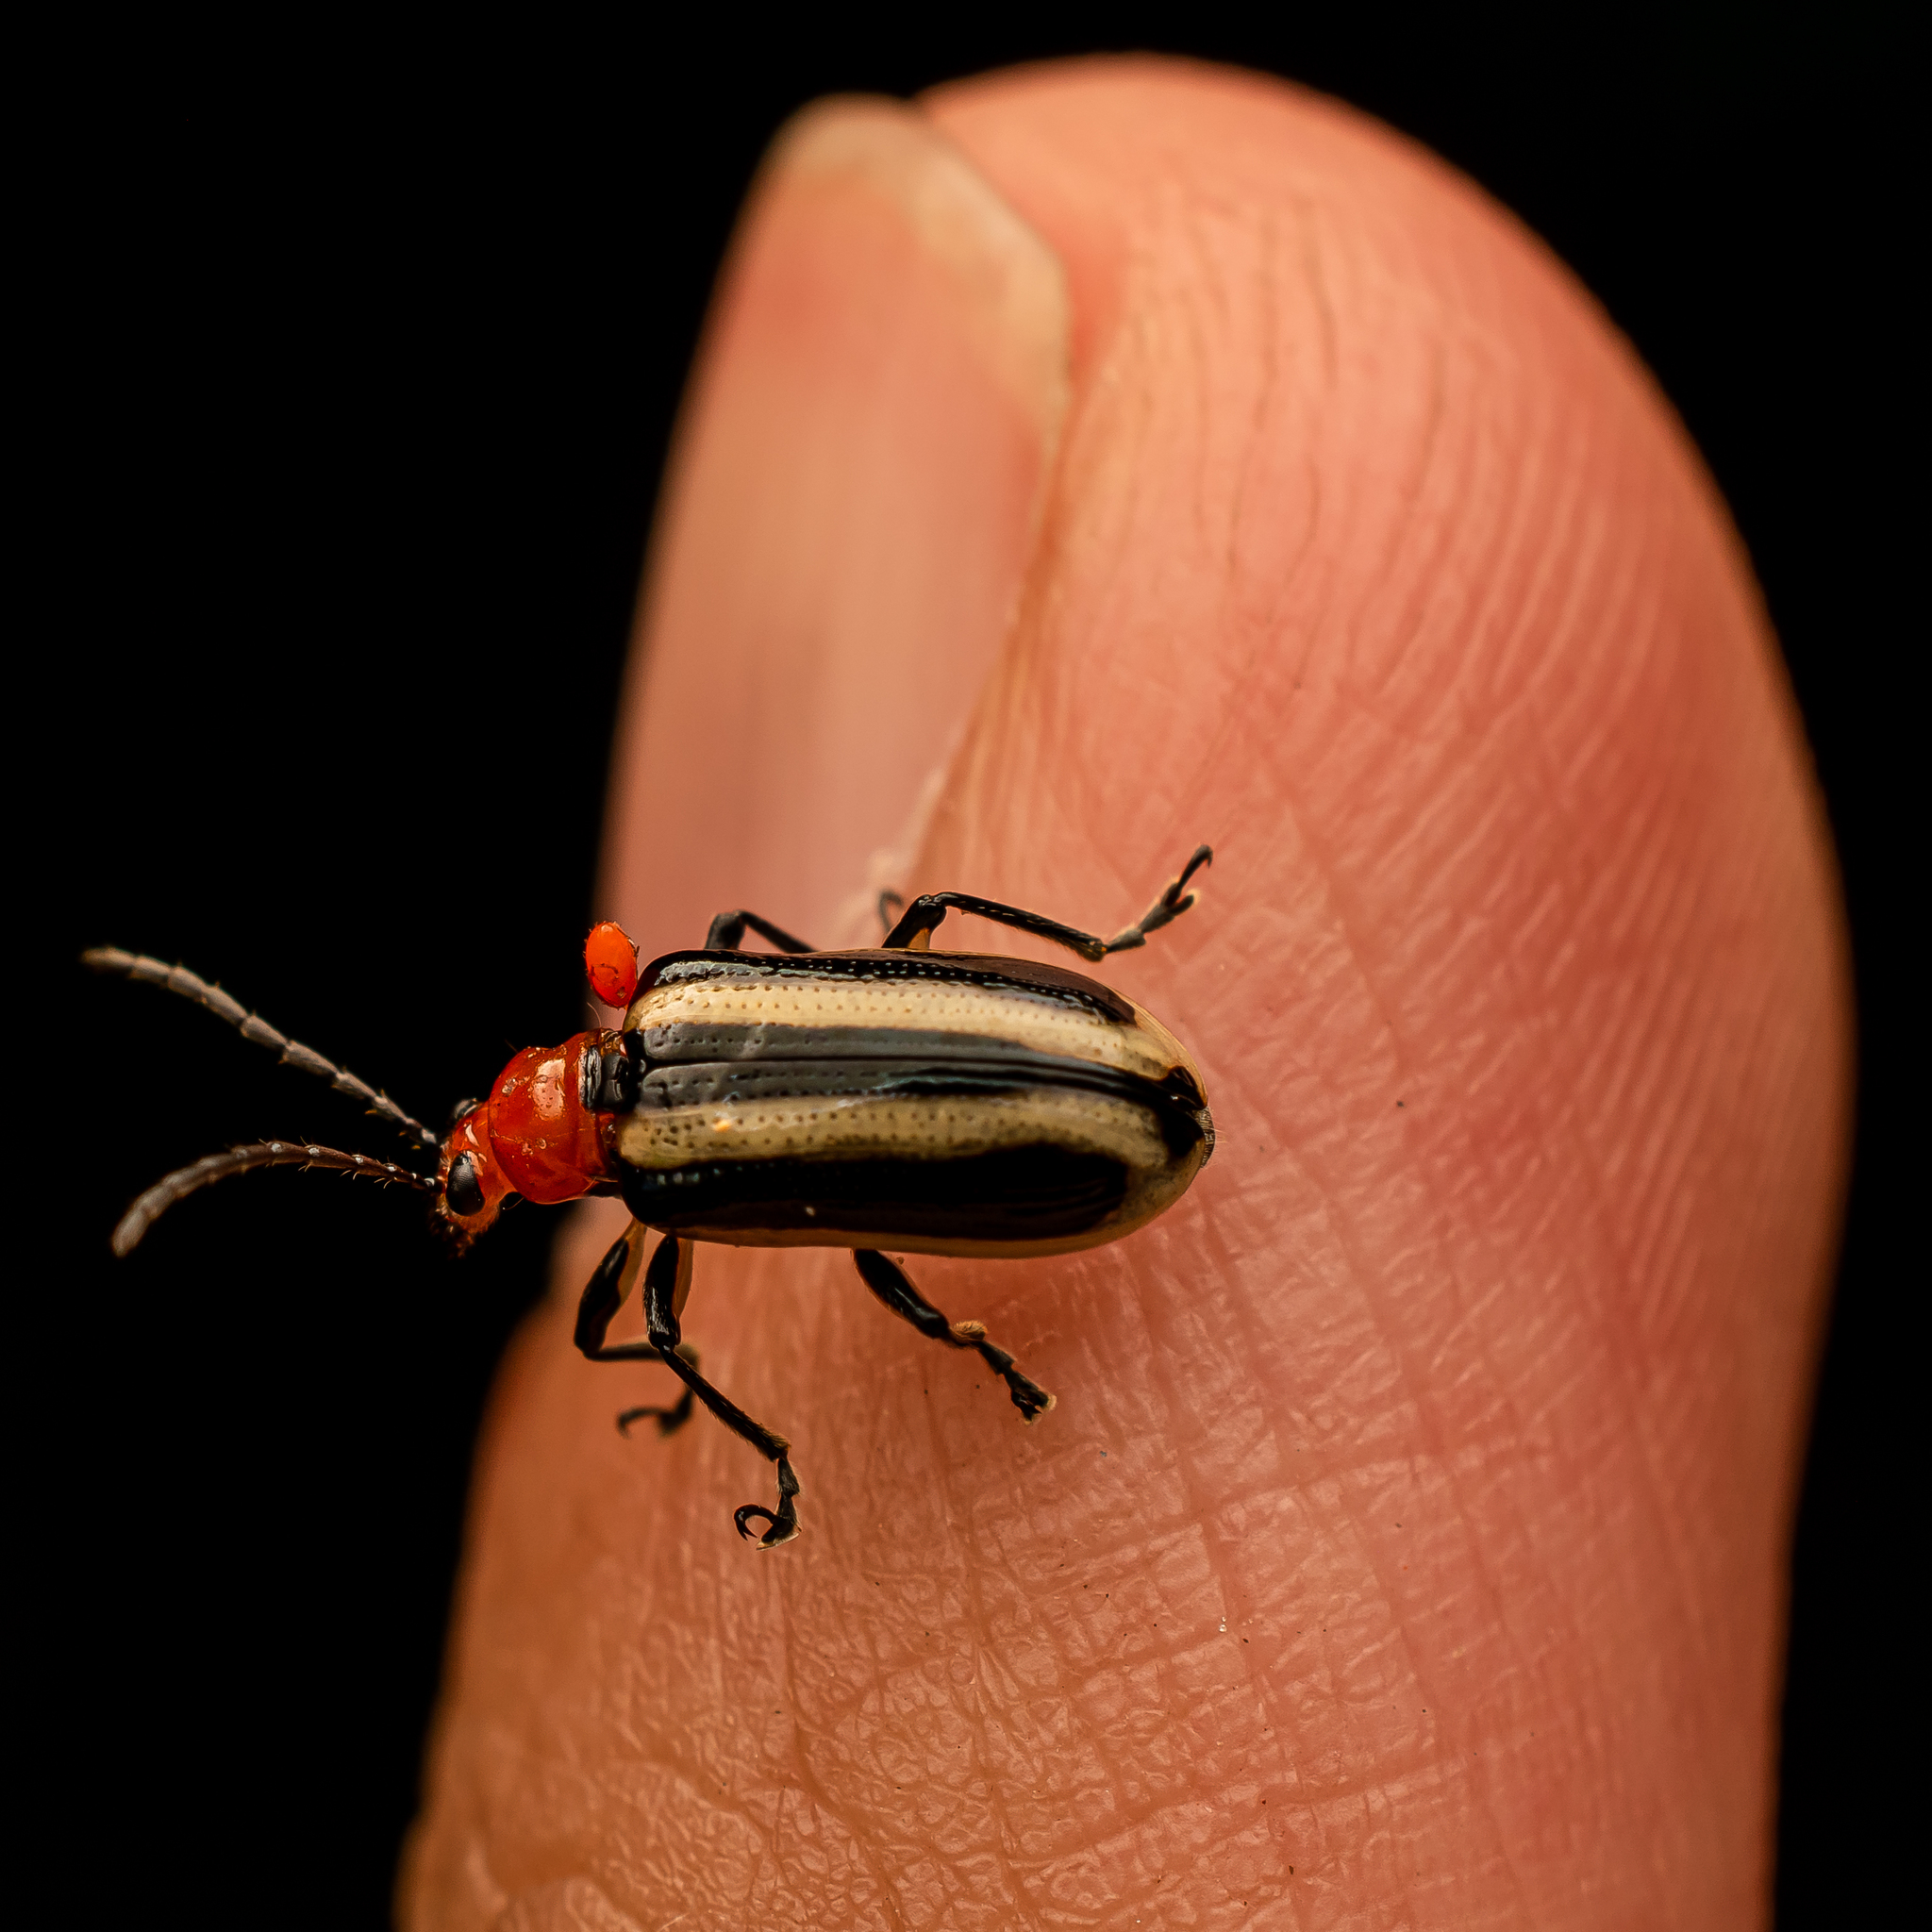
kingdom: Animalia
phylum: Arthropoda
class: Insecta
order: Coleoptera
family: Chrysomelidae
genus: Lema
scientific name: Lema
